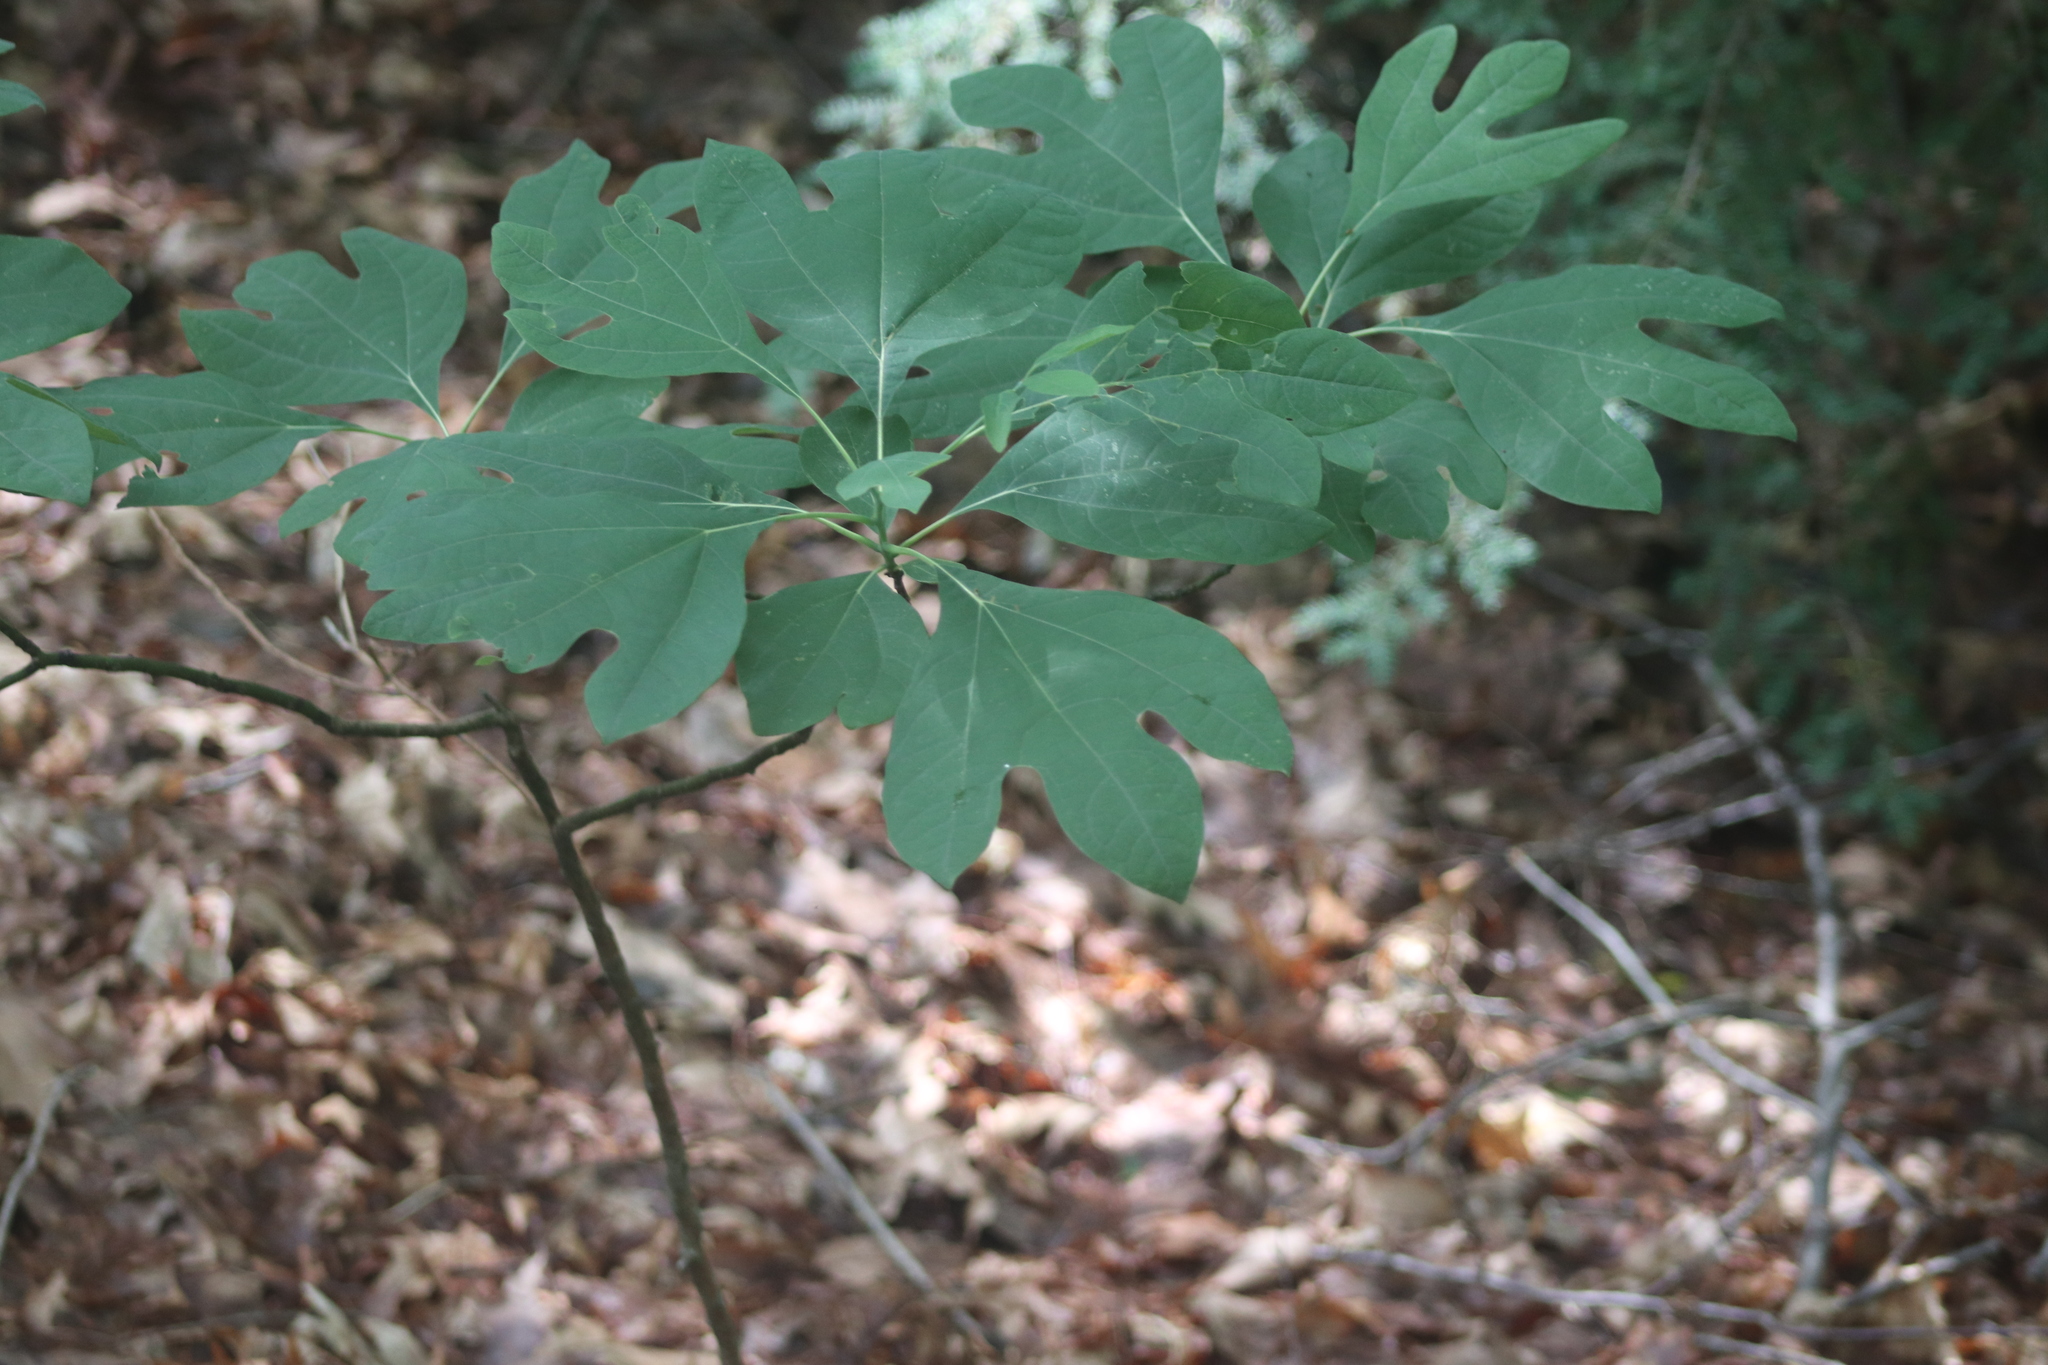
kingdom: Plantae
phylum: Tracheophyta
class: Magnoliopsida
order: Laurales
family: Lauraceae
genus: Sassafras
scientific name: Sassafras albidum
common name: Sassafras
